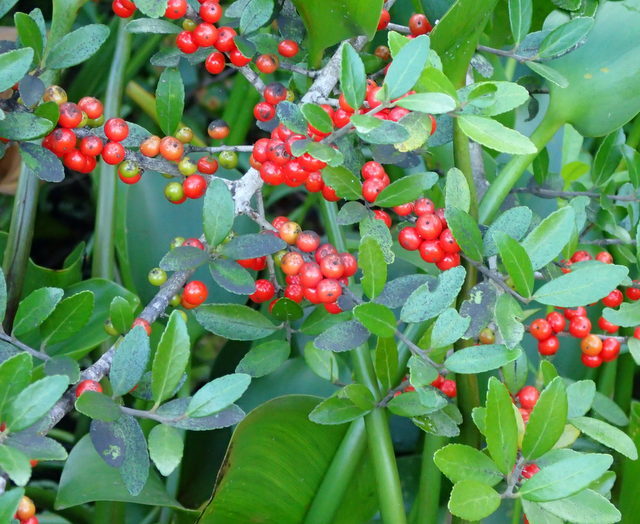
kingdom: Plantae
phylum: Tracheophyta
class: Magnoliopsida
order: Aquifoliales
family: Aquifoliaceae
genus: Ilex
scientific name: Ilex vomitoria
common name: Yaupon holly
